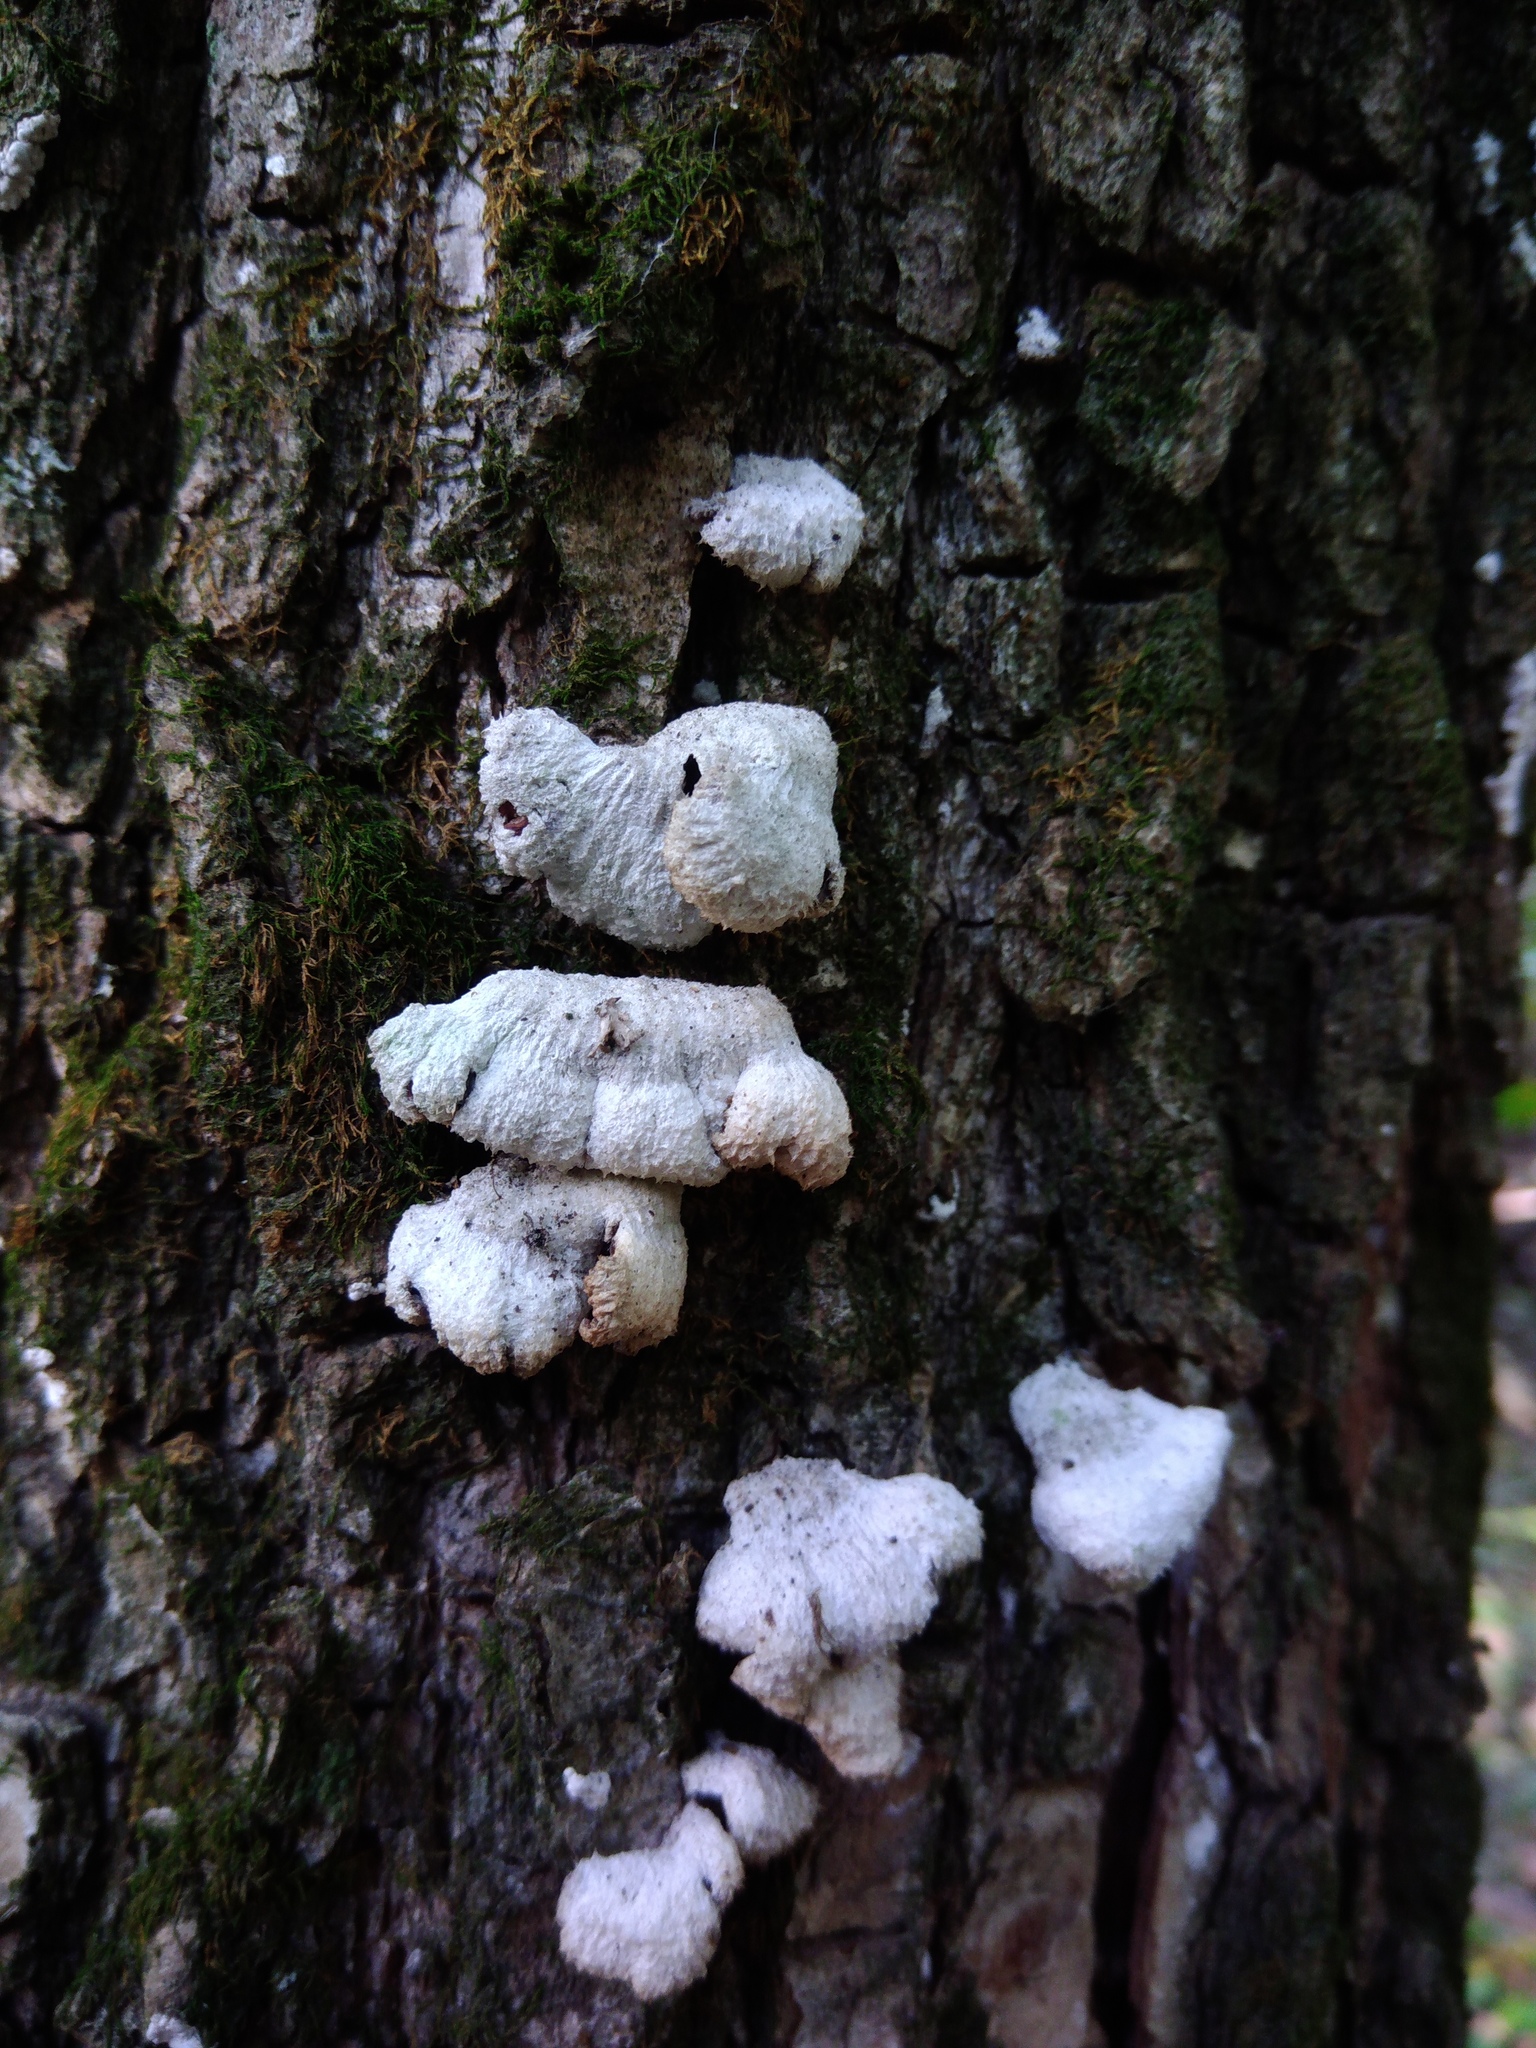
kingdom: Fungi
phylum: Basidiomycota
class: Agaricomycetes
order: Agaricales
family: Schizophyllaceae
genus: Schizophyllum
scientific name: Schizophyllum commune
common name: Common porecrust
